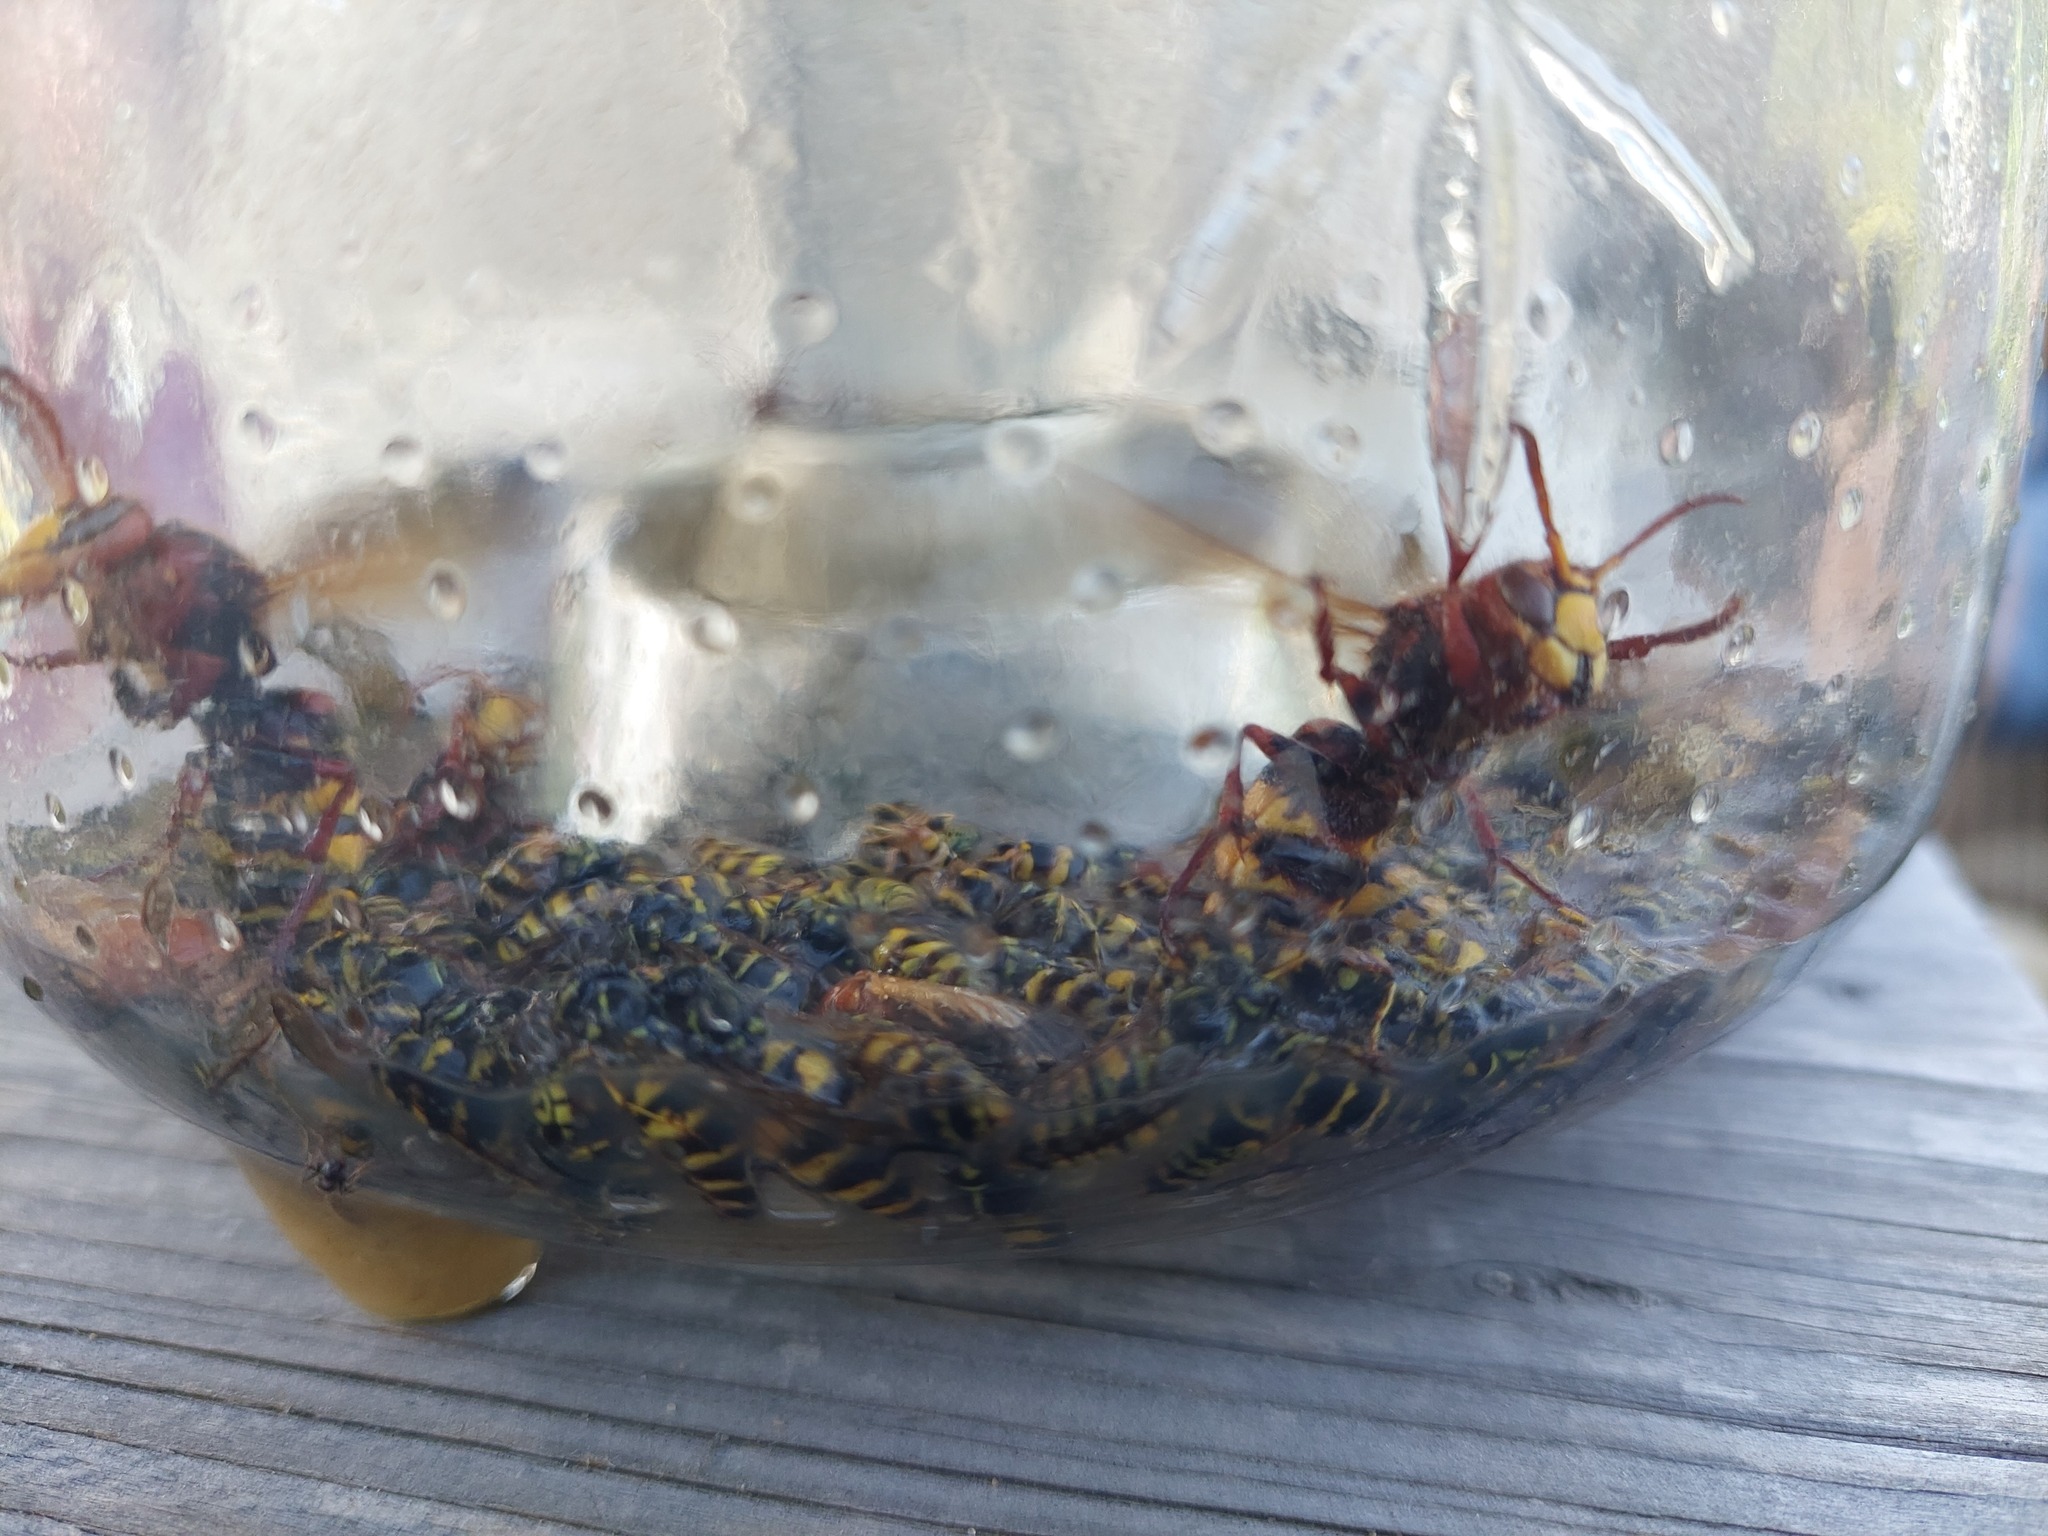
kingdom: Animalia
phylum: Arthropoda
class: Insecta
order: Hymenoptera
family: Vespidae
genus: Vespa
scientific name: Vespa crabro
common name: Hornet
